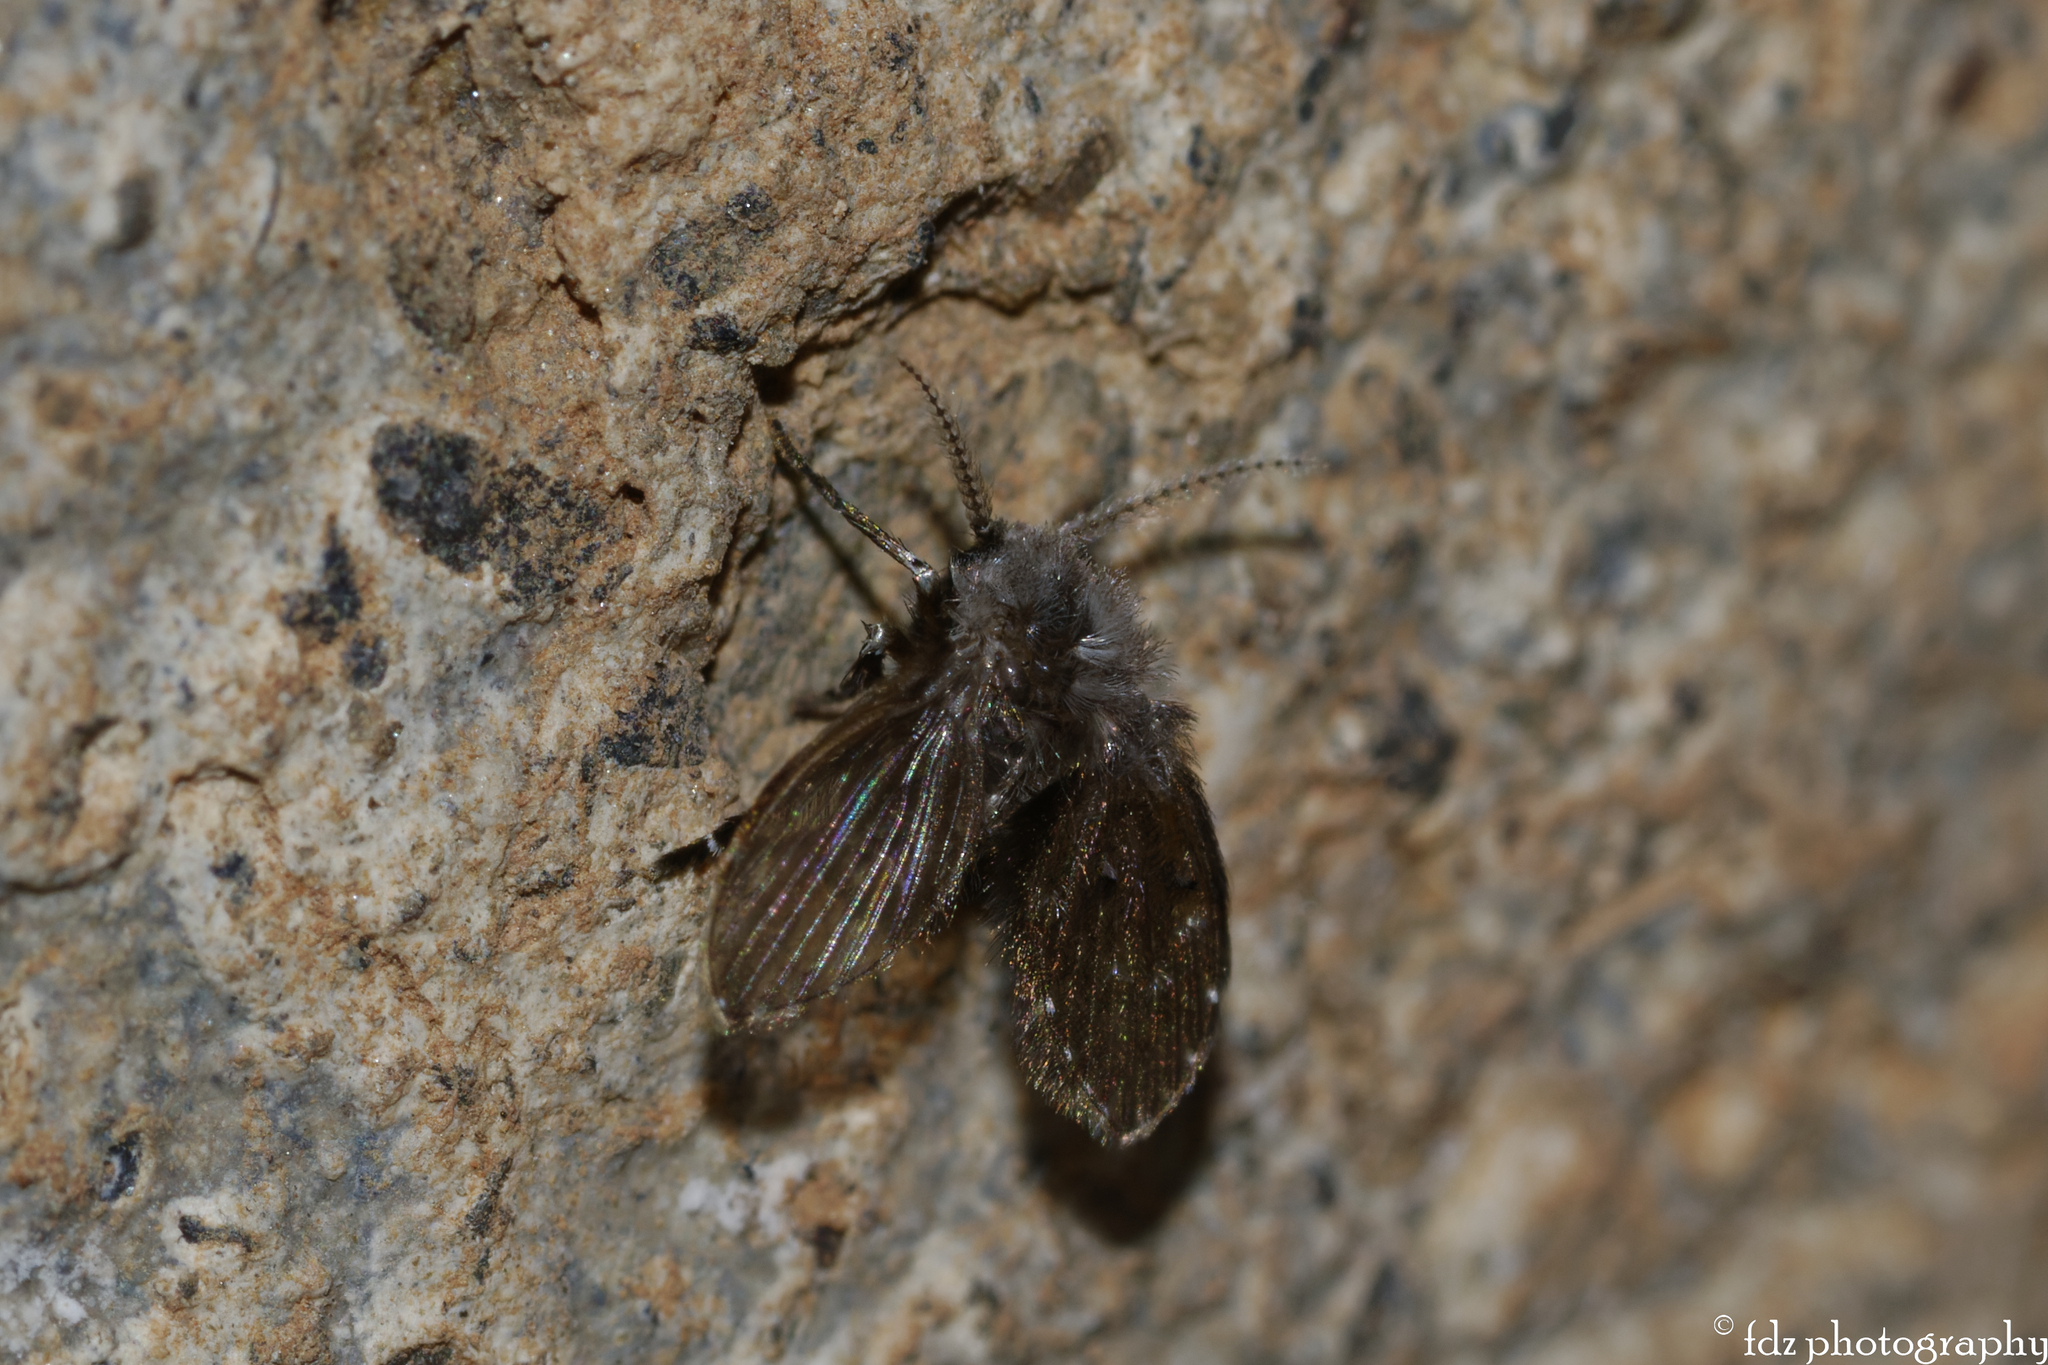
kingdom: Animalia
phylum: Arthropoda
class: Insecta
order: Diptera
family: Psychodidae
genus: Clogmia
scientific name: Clogmia albipunctatus
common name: White-spotted moth fly
